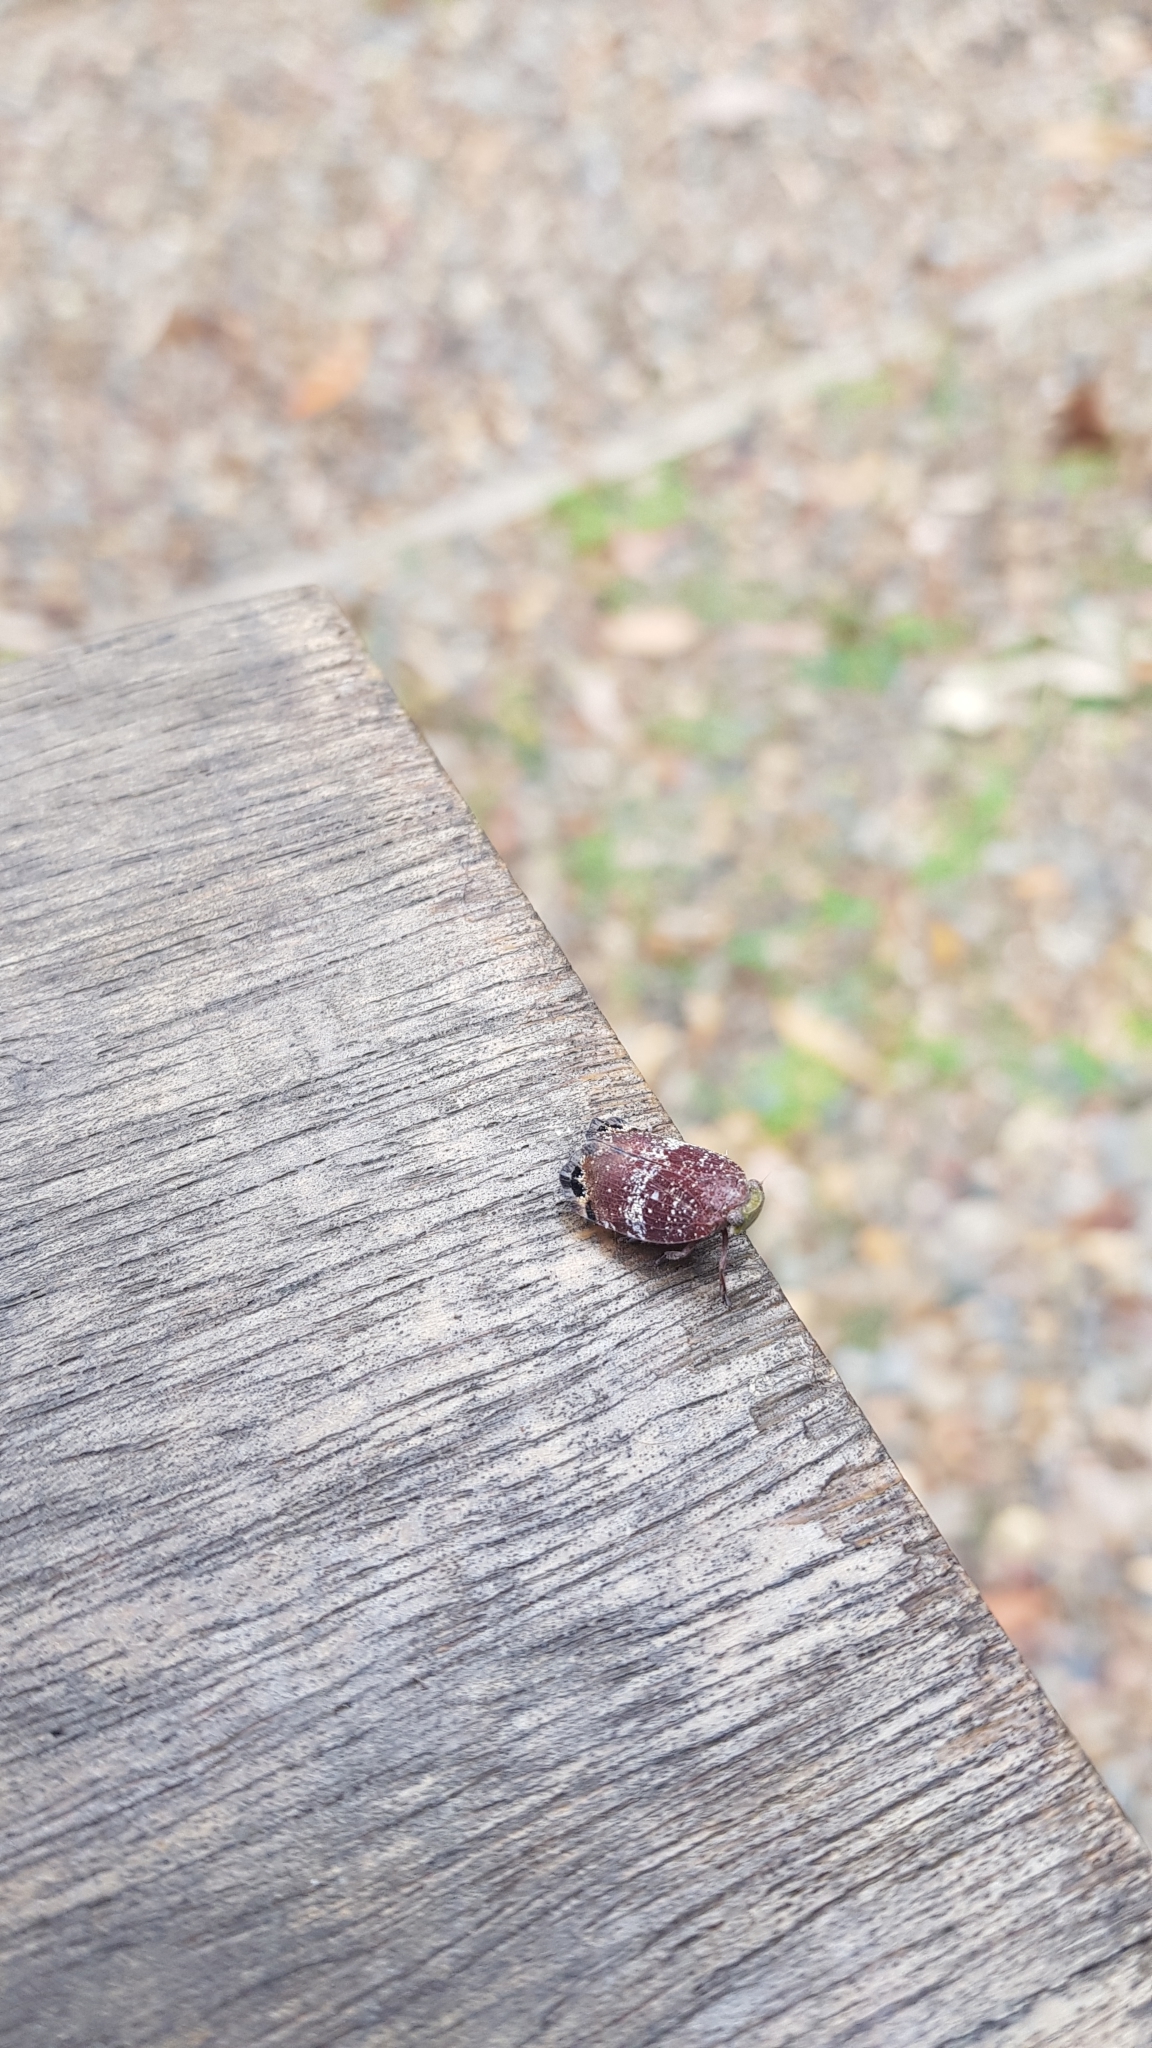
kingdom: Animalia
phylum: Arthropoda
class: Insecta
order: Hemiptera
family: Eurybrachidae
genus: Platybrachys
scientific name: Platybrachys decemmacula
